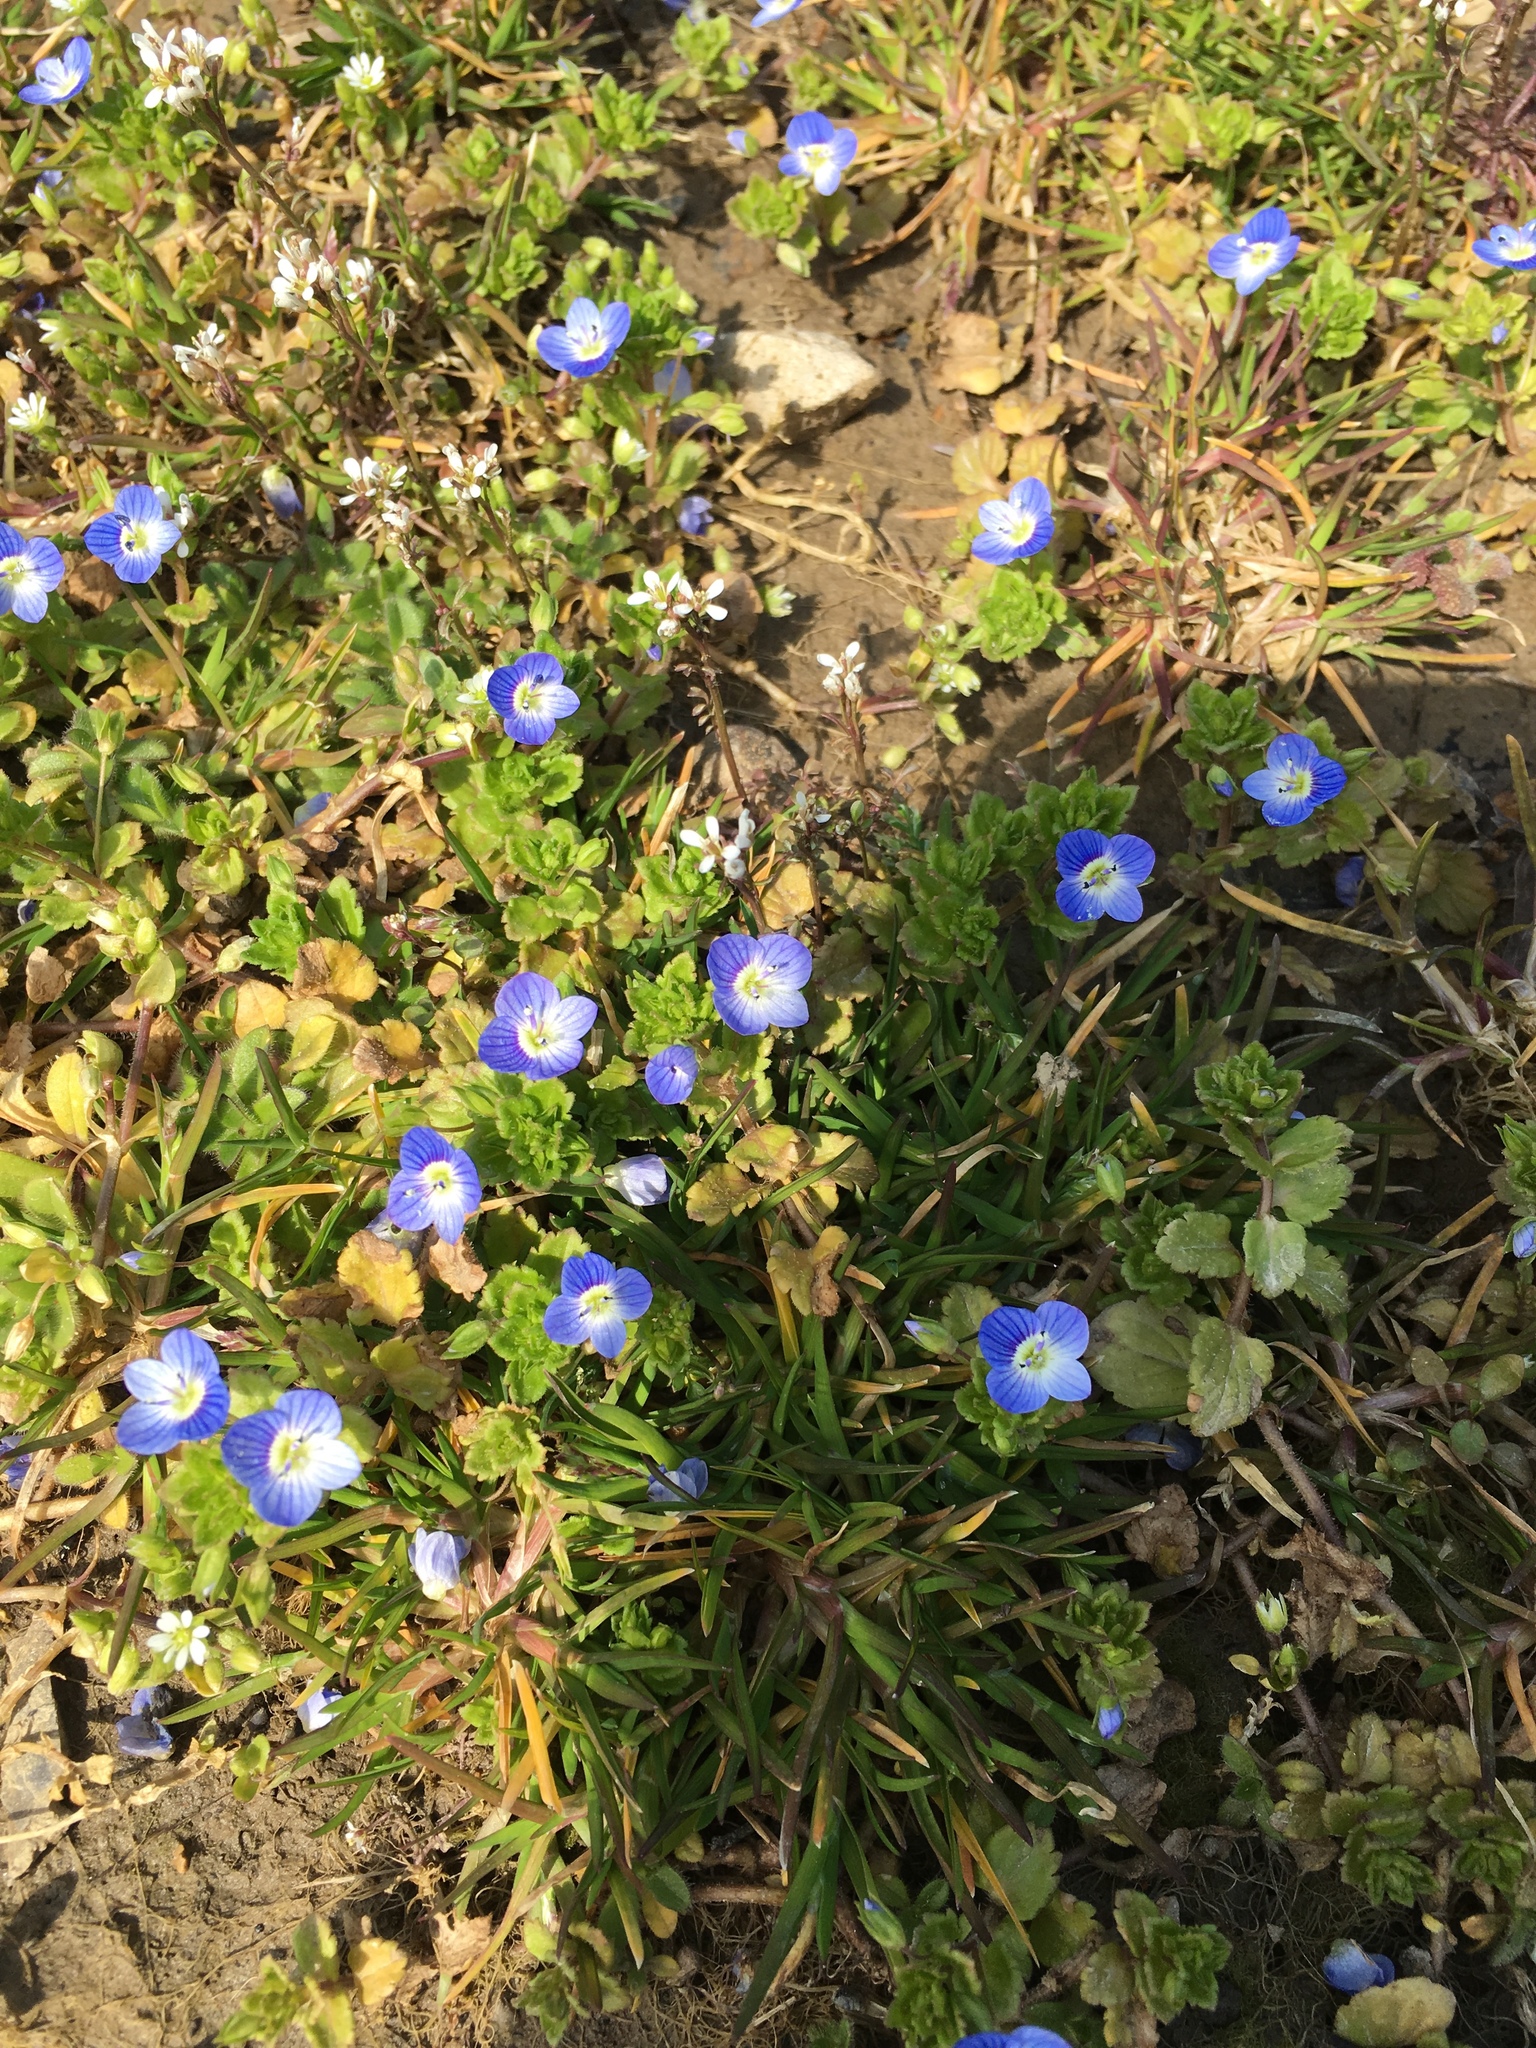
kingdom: Plantae
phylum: Tracheophyta
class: Magnoliopsida
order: Lamiales
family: Plantaginaceae
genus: Veronica
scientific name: Veronica persica
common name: Common field-speedwell
